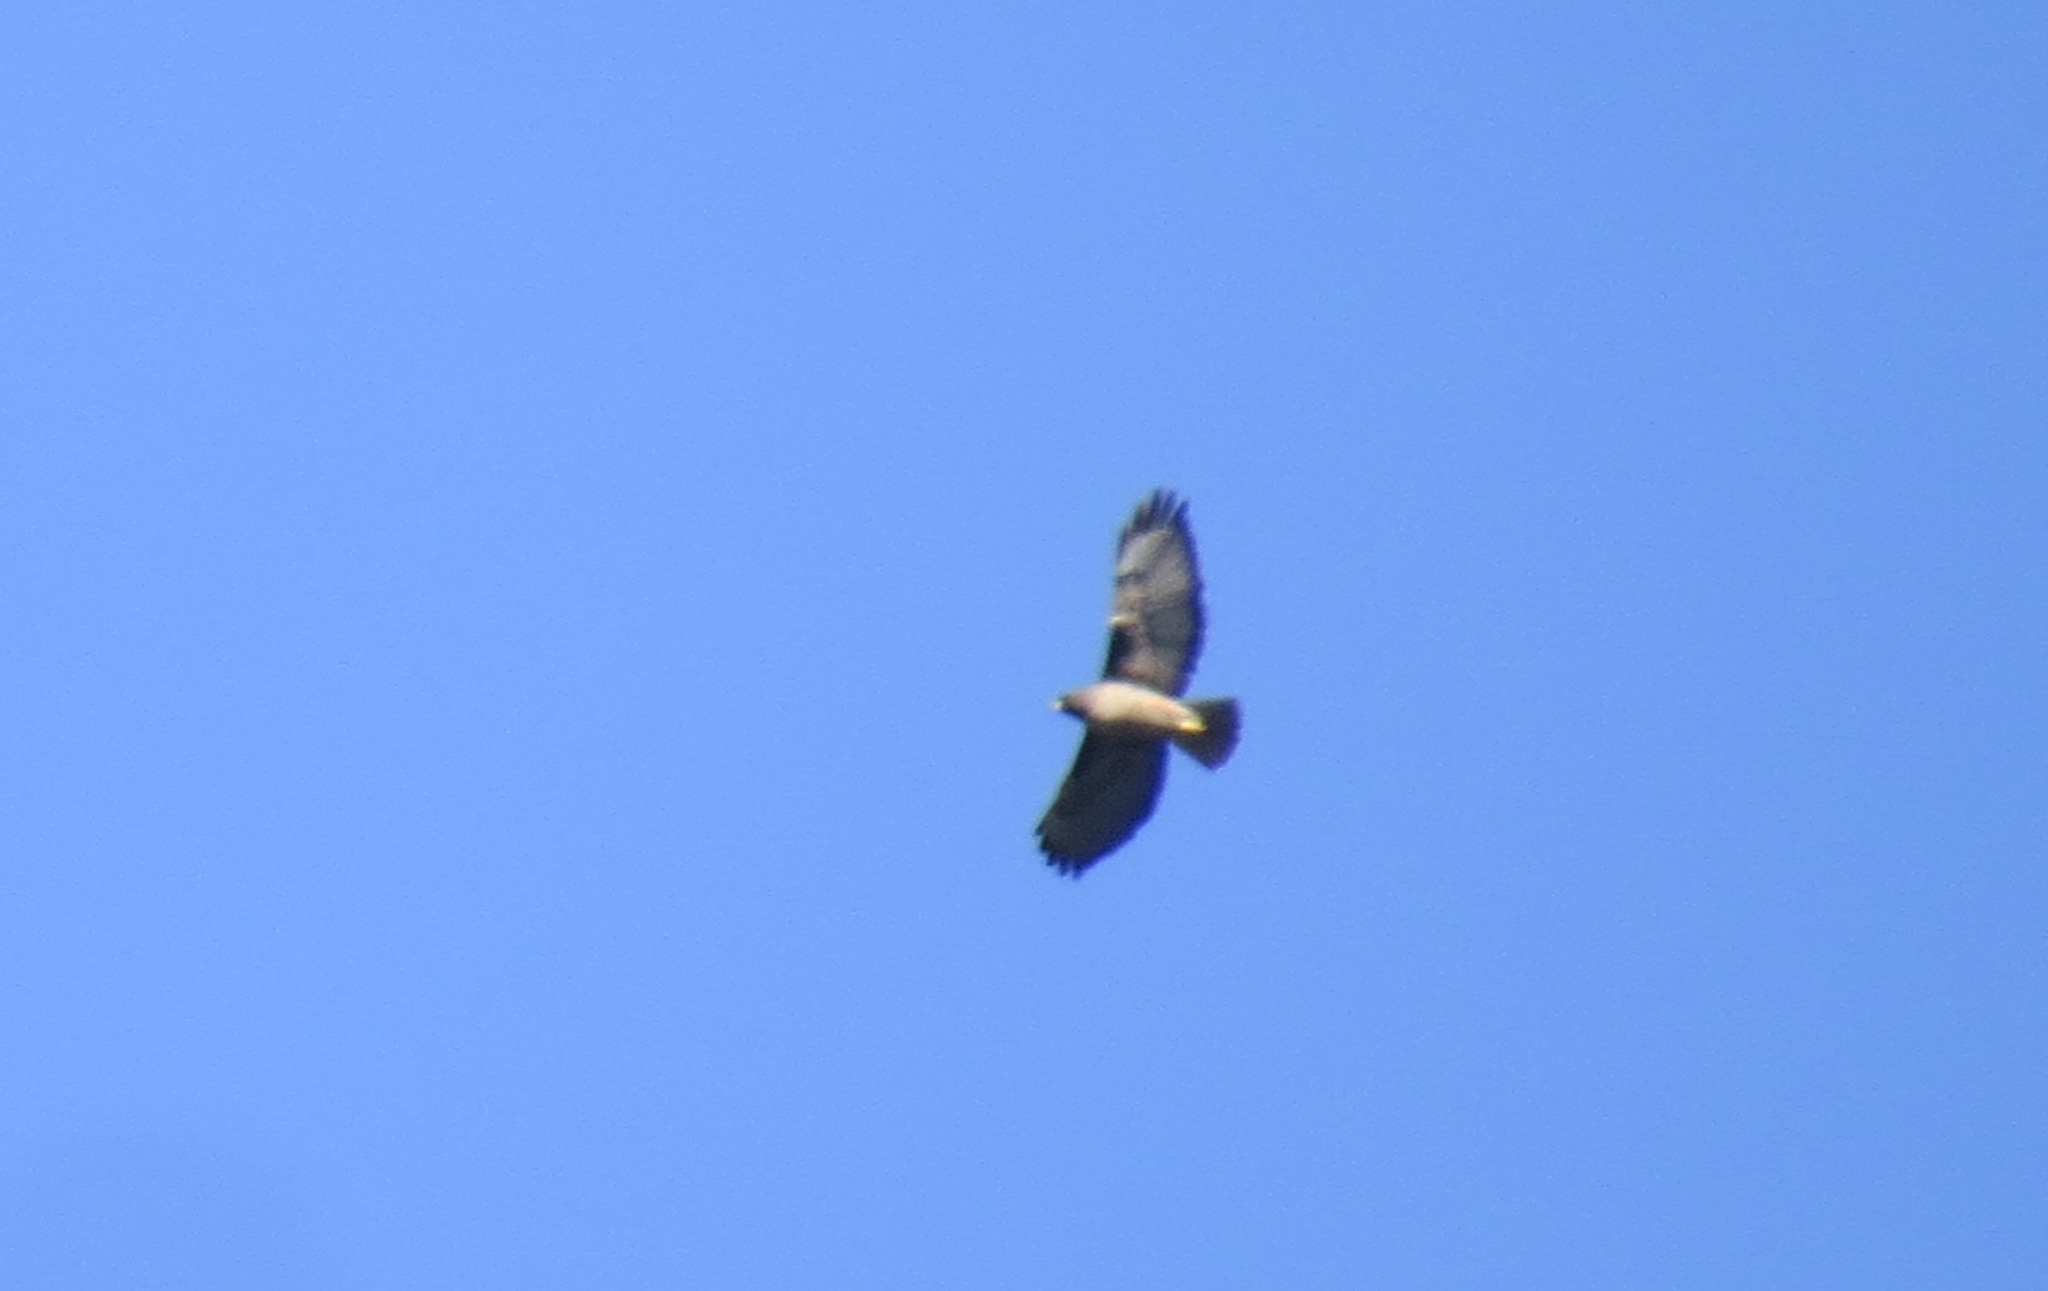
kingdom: Animalia
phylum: Chordata
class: Aves
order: Accipitriformes
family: Accipitridae
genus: Buteo
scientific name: Buteo jamaicensis
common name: Red-tailed hawk
